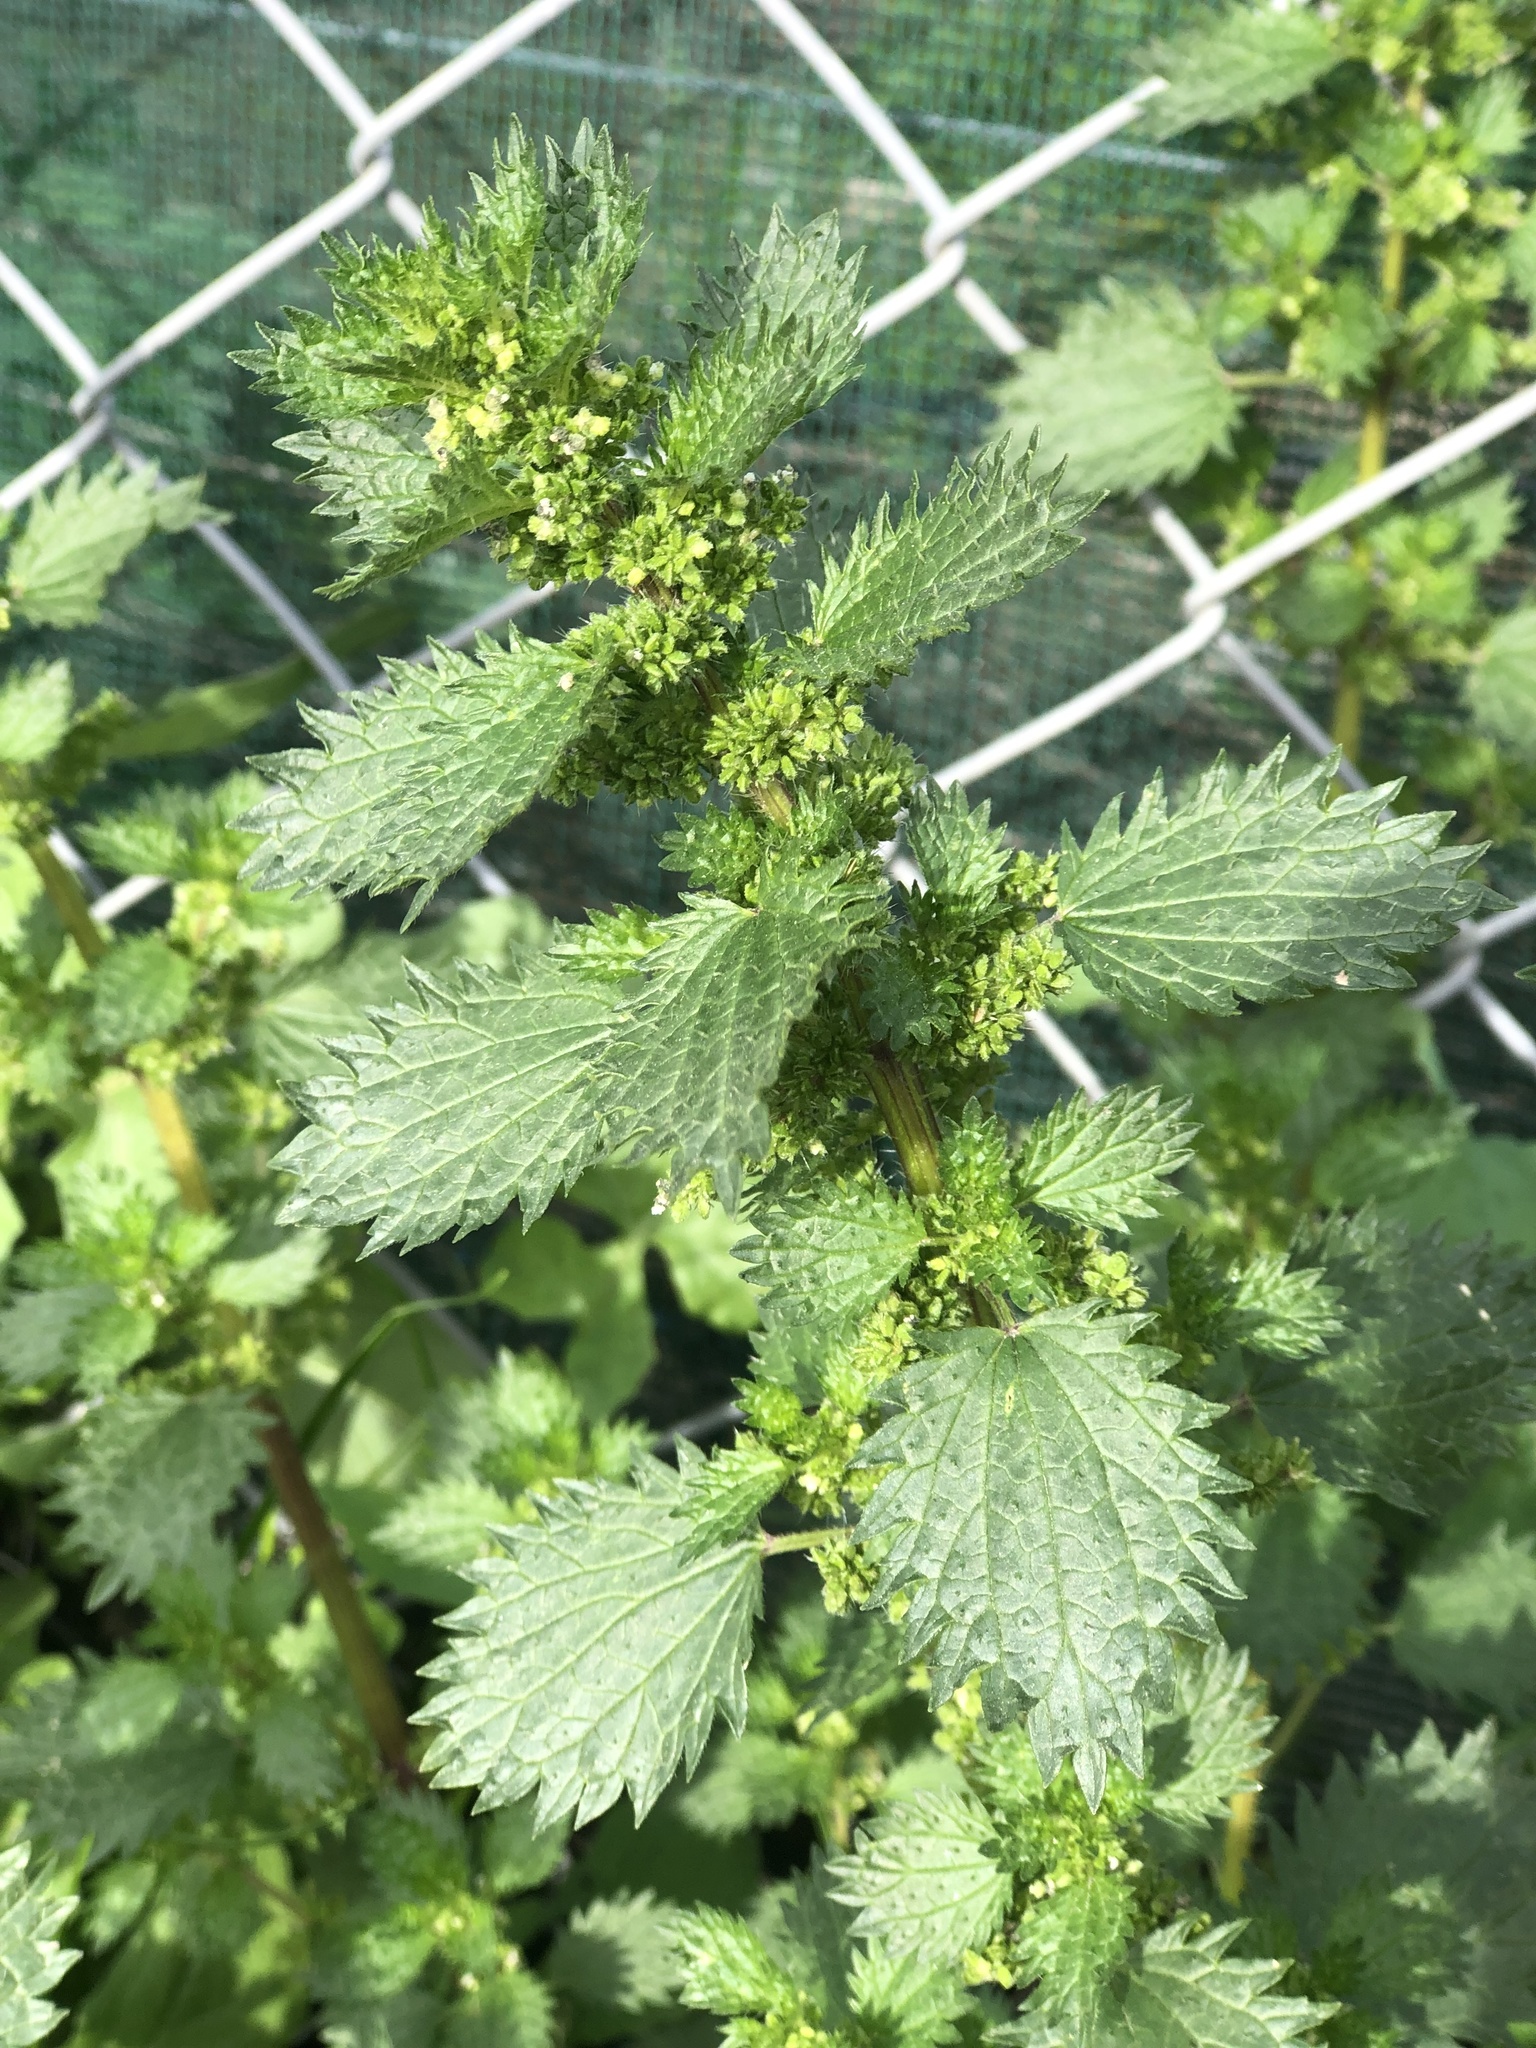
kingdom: Plantae
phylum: Tracheophyta
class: Magnoliopsida
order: Rosales
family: Urticaceae
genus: Urtica
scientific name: Urtica urens
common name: Dwarf nettle
